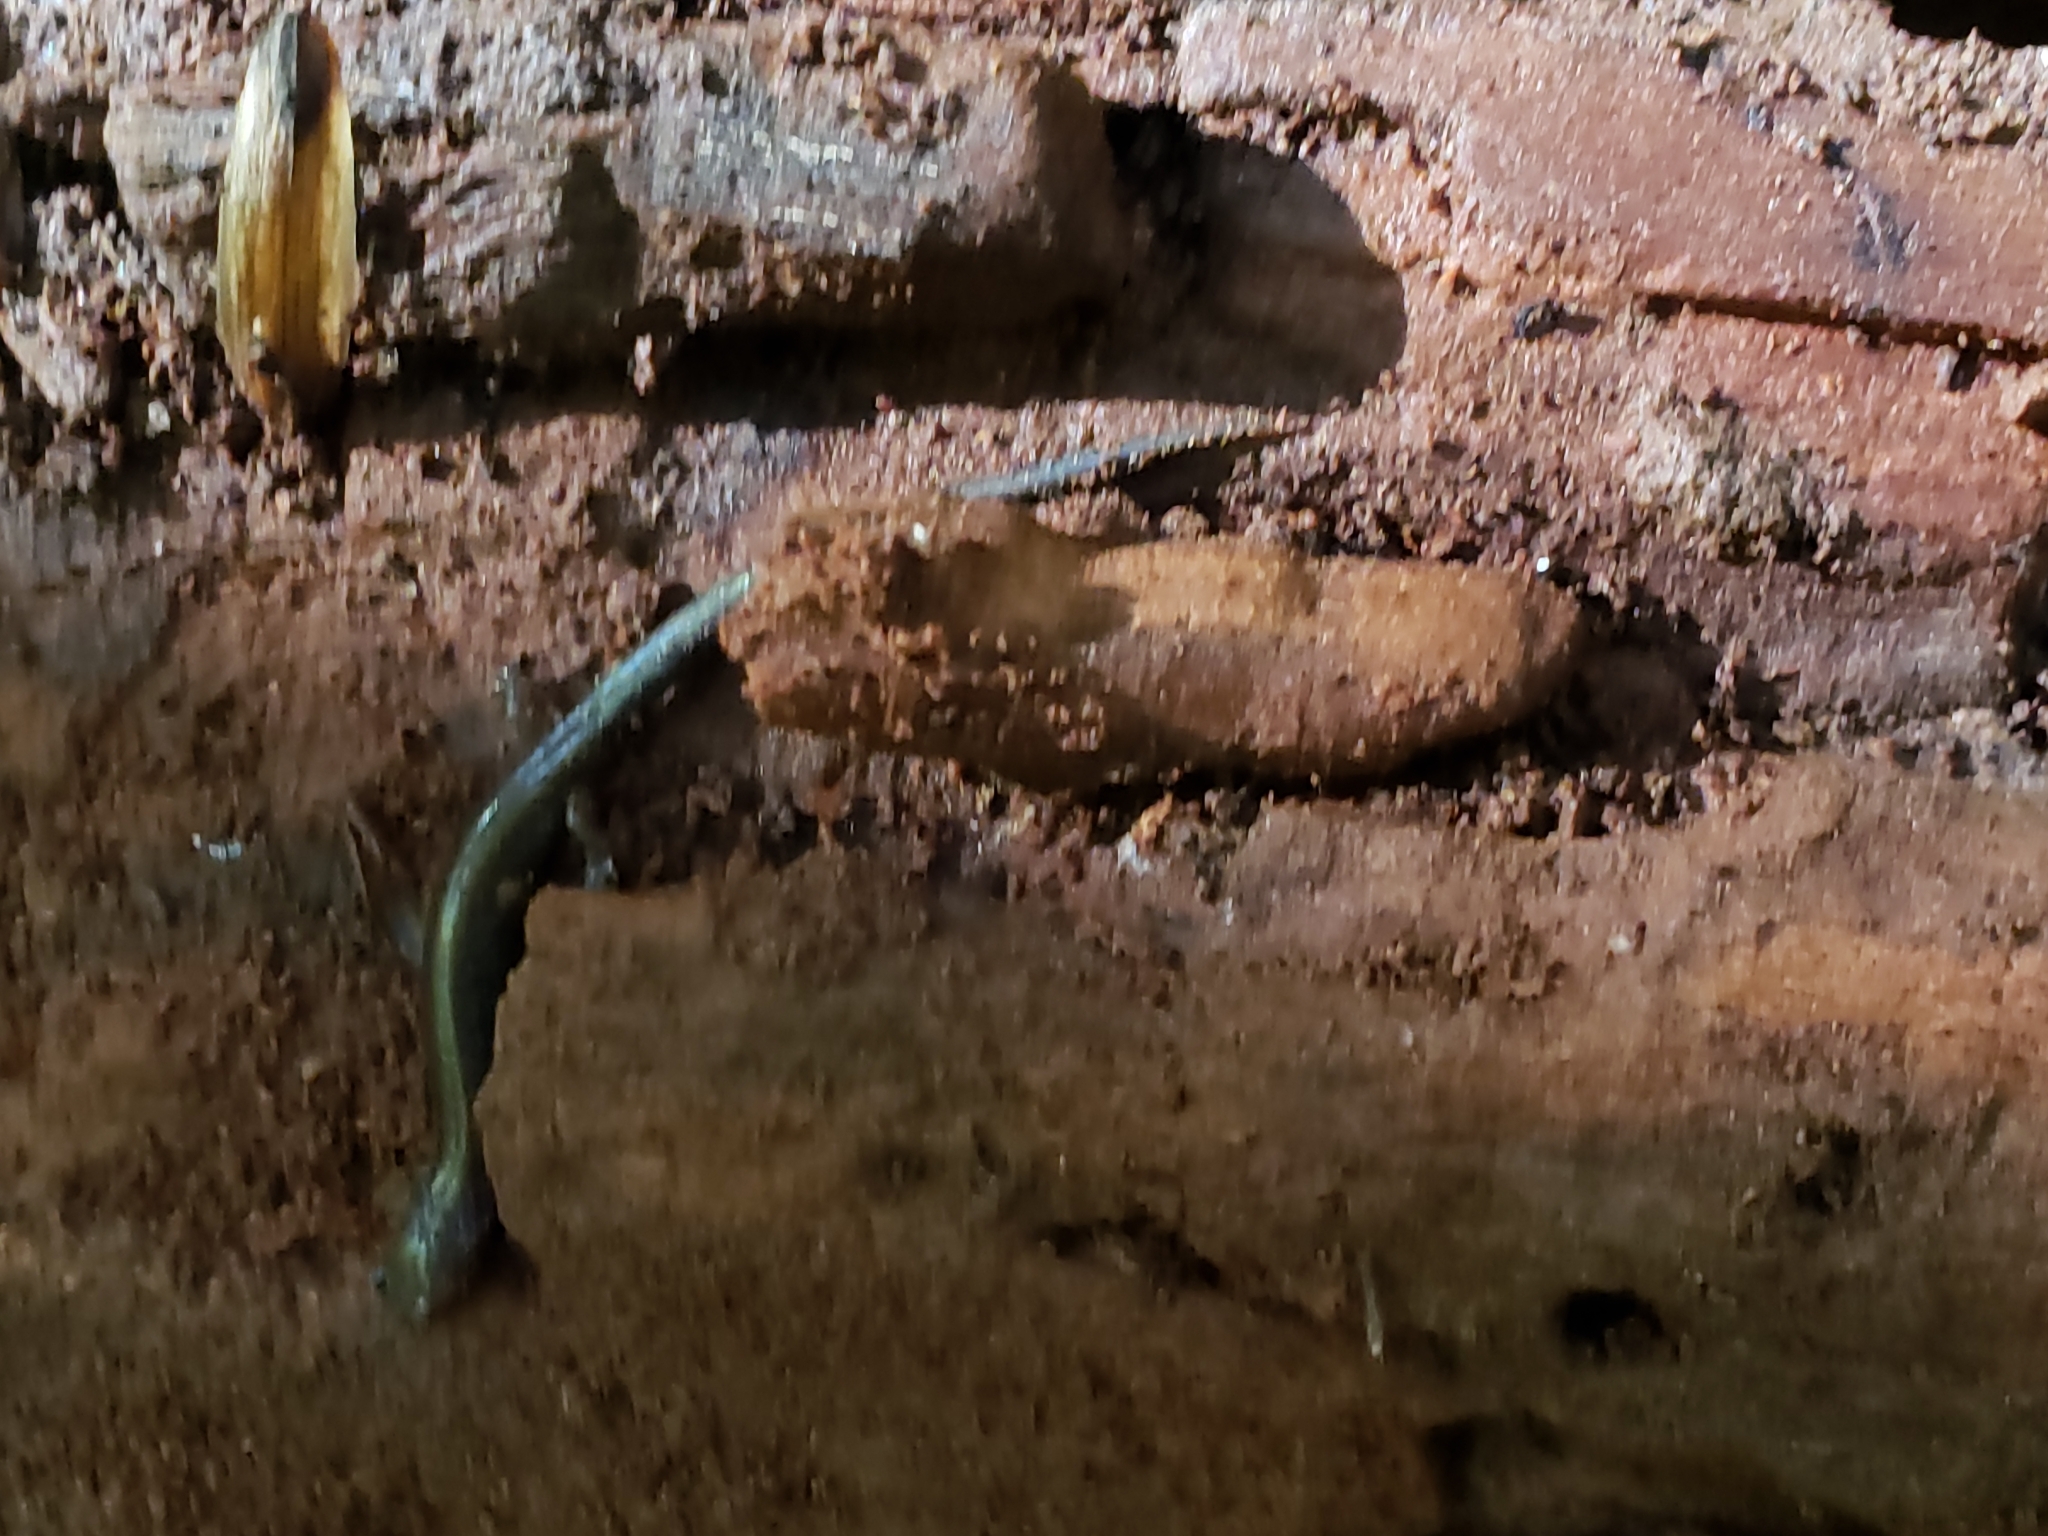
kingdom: Animalia
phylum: Chordata
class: Amphibia
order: Caudata
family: Plethodontidae
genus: Plethodon
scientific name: Plethodon cinereus
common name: Redback salamander
